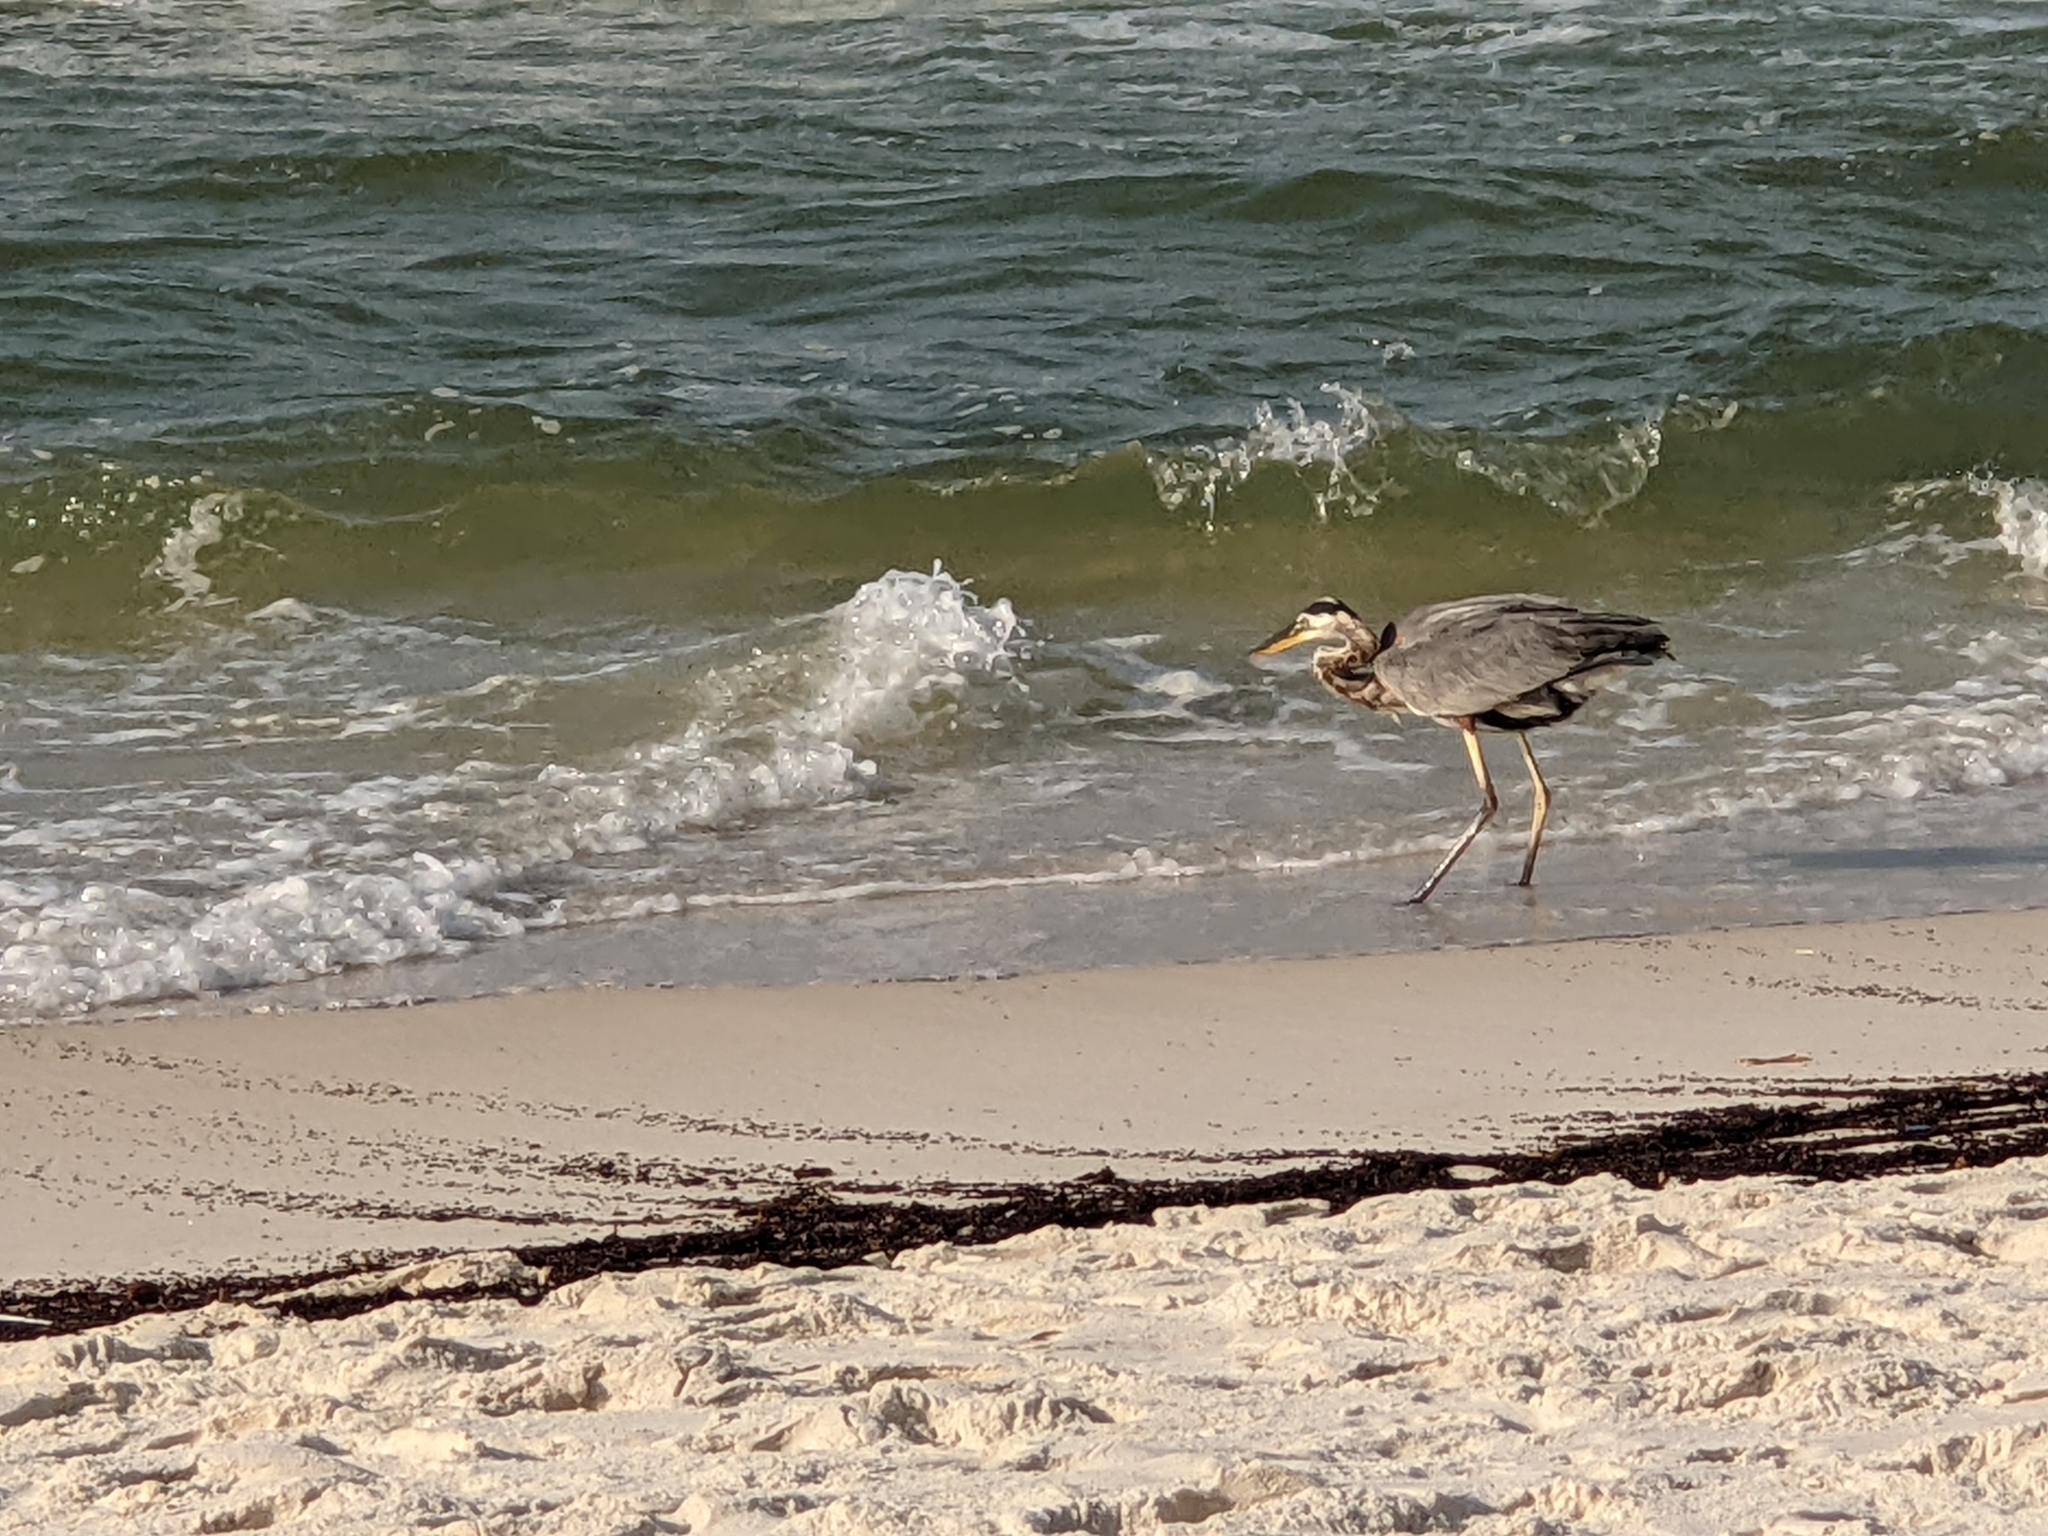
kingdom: Animalia
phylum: Chordata
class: Aves
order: Pelecaniformes
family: Ardeidae
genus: Ardea
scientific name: Ardea herodias
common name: Great blue heron
